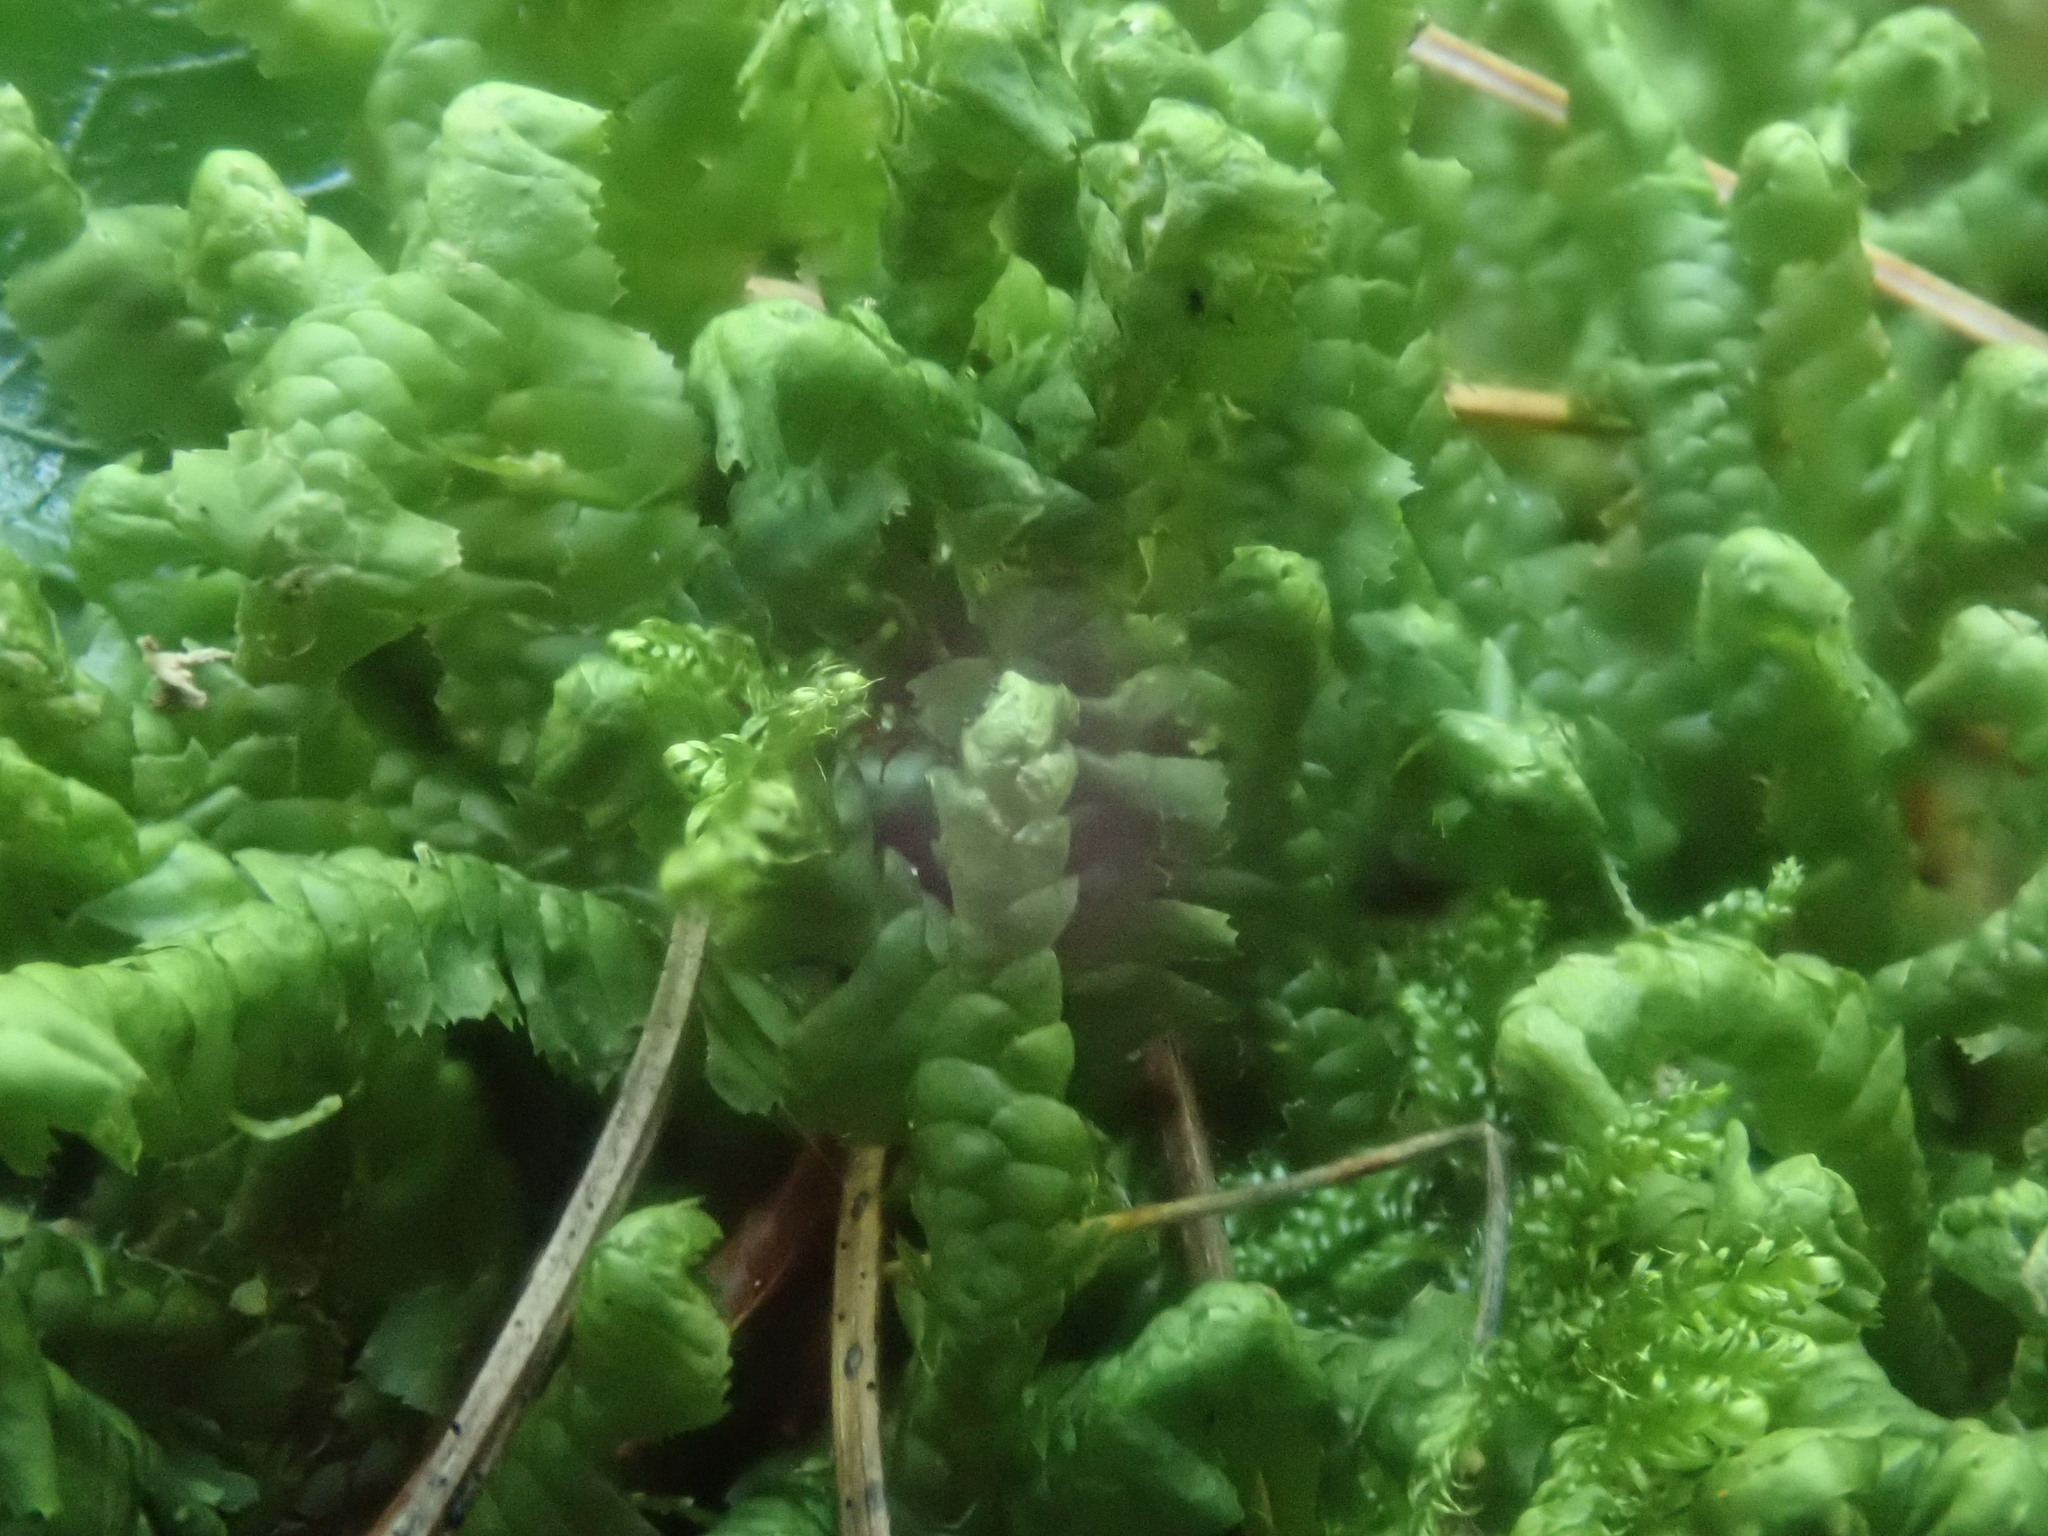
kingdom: Plantae
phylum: Marchantiophyta
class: Jungermanniopsida
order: Jungermanniales
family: Lepidoziaceae
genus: Bazzania
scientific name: Bazzania trilobata
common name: Three-lobed whipwort
